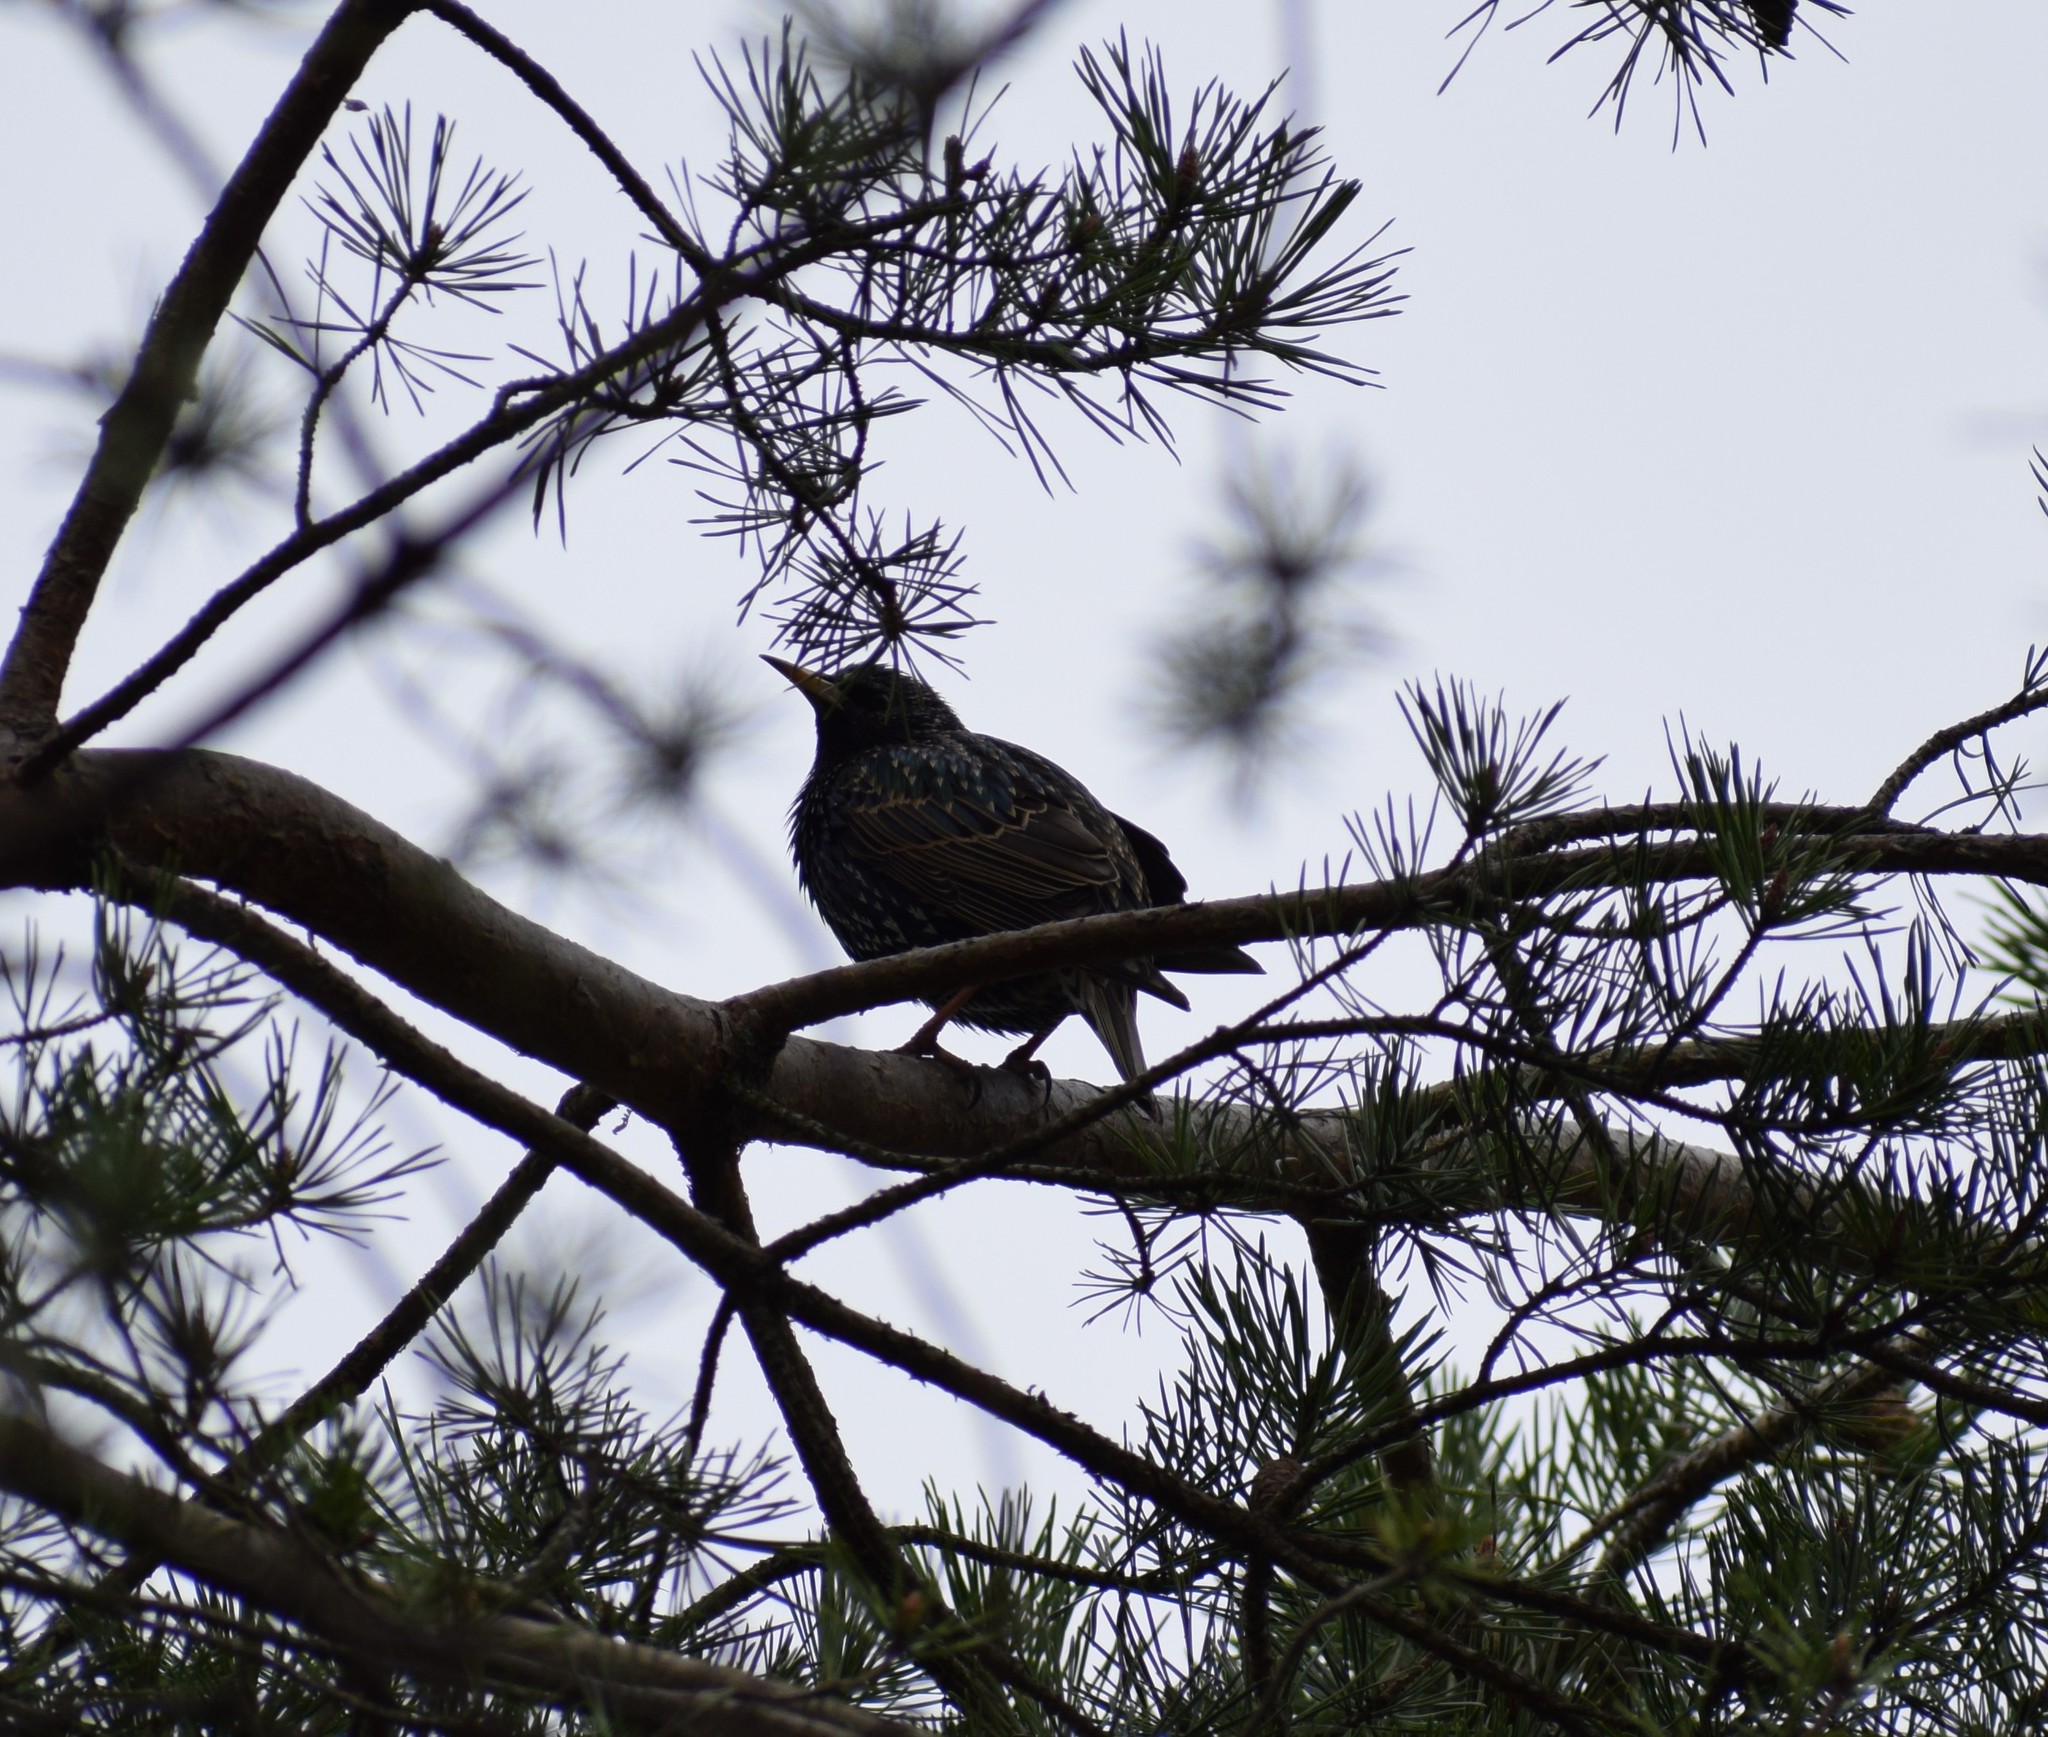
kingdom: Animalia
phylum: Chordata
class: Aves
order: Passeriformes
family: Sturnidae
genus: Sturnus
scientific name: Sturnus vulgaris
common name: Common starling
